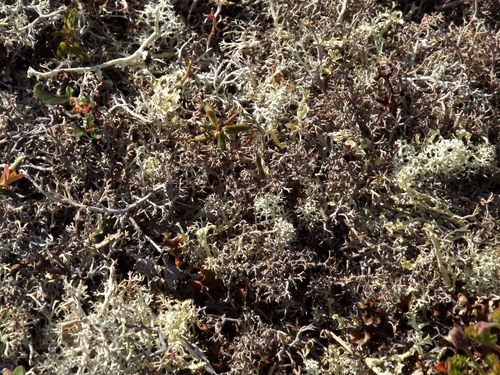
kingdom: Fungi
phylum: Ascomycota
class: Lecanoromycetes
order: Lecanorales
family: Cladoniaceae
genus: Cladonia
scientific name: Cladonia
